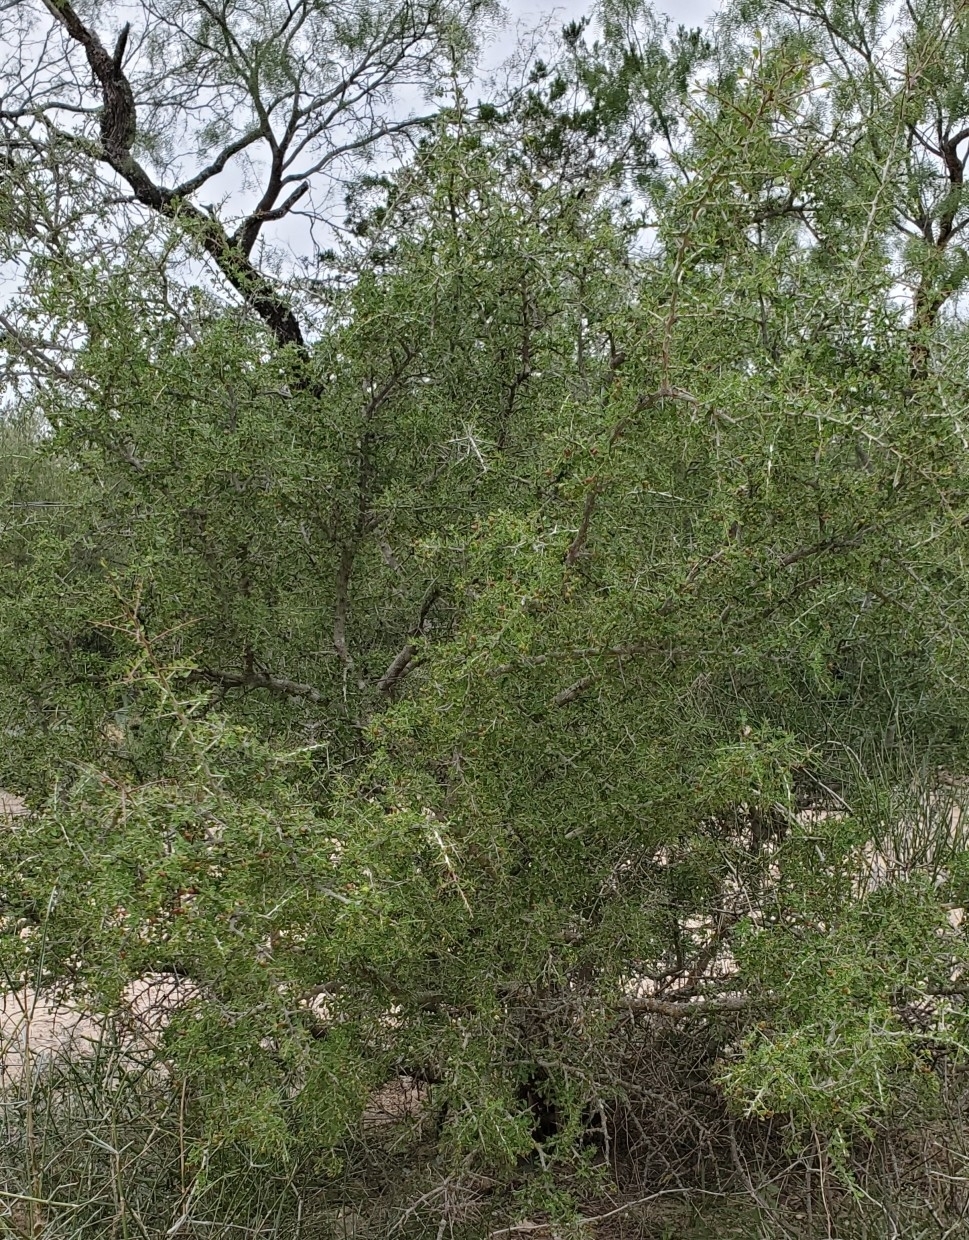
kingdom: Plantae
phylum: Tracheophyta
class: Magnoliopsida
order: Rosales
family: Rhamnaceae
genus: Condalia
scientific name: Condalia viridis
